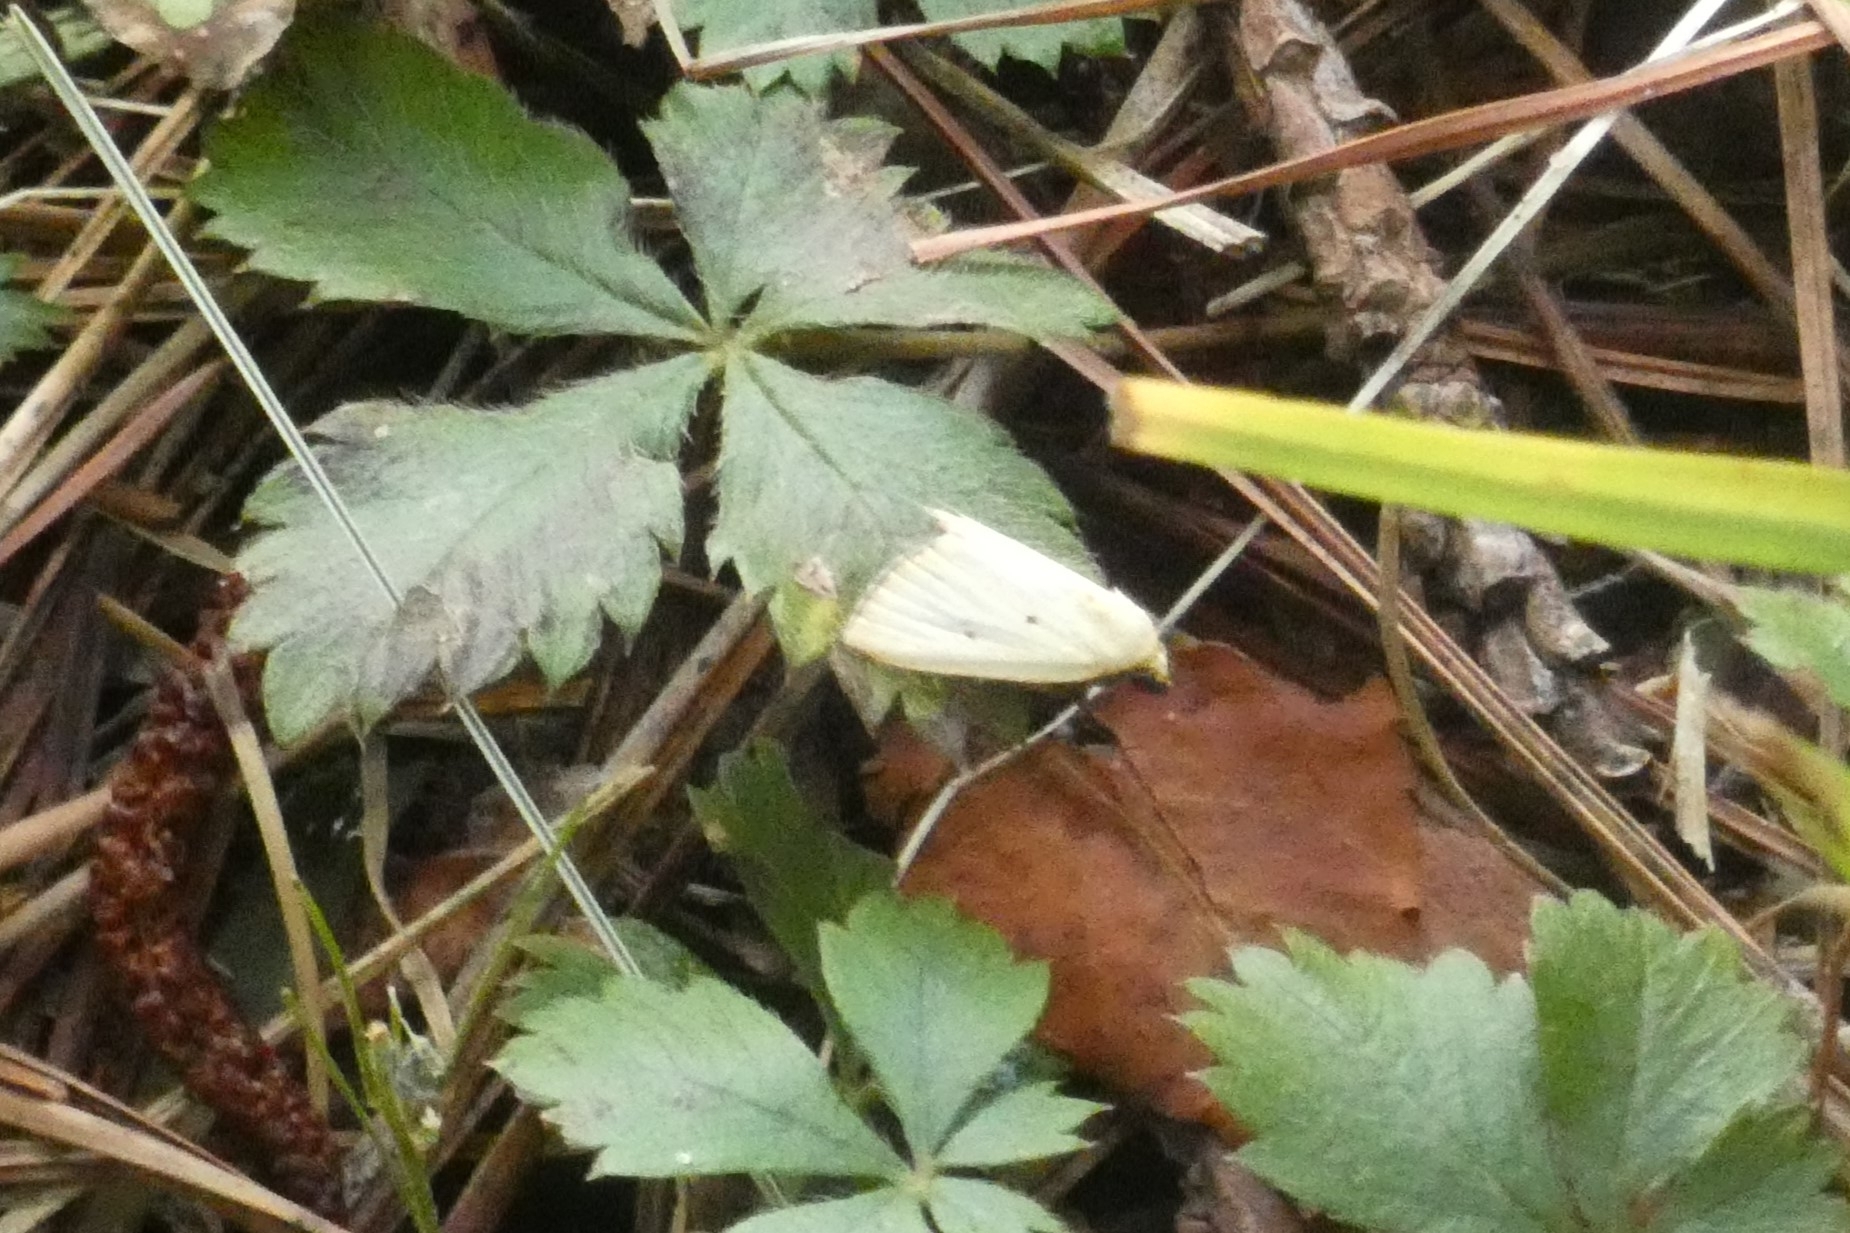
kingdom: Animalia
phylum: Arthropoda
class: Insecta
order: Lepidoptera
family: Noctuidae
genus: Marimatha
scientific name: Marimatha nigrofimbria
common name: Black-bordered lemon moth
